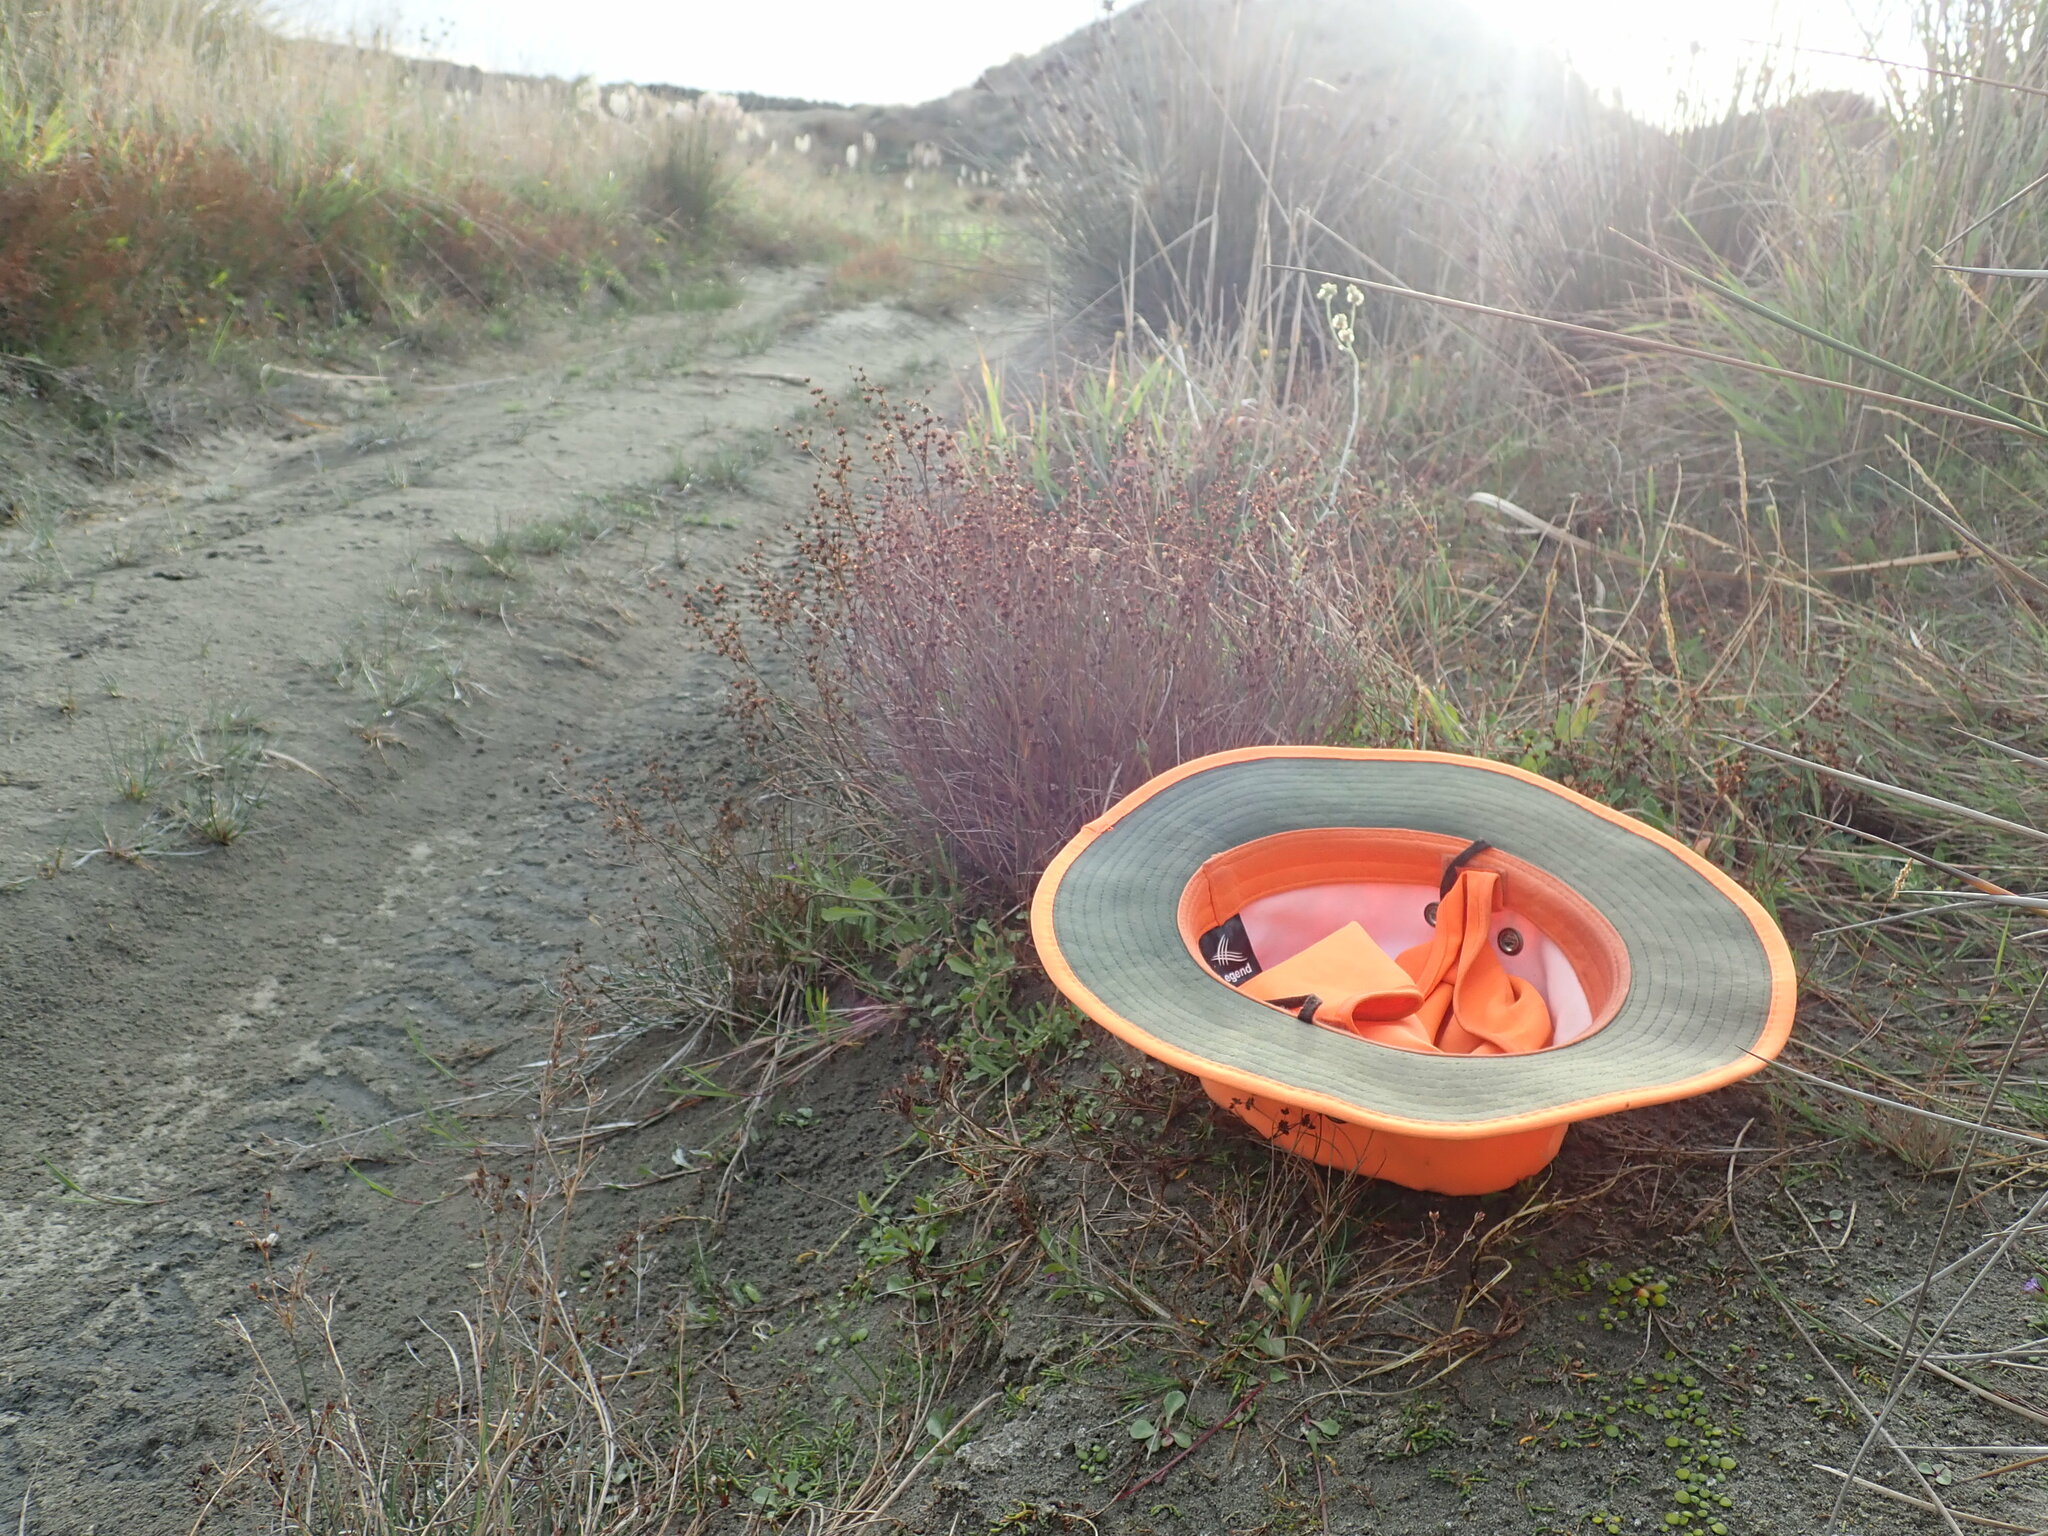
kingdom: Plantae
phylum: Tracheophyta
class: Magnoliopsida
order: Apiales
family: Apiaceae
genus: Lilaeopsis
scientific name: Lilaeopsis novae-zelandiae
